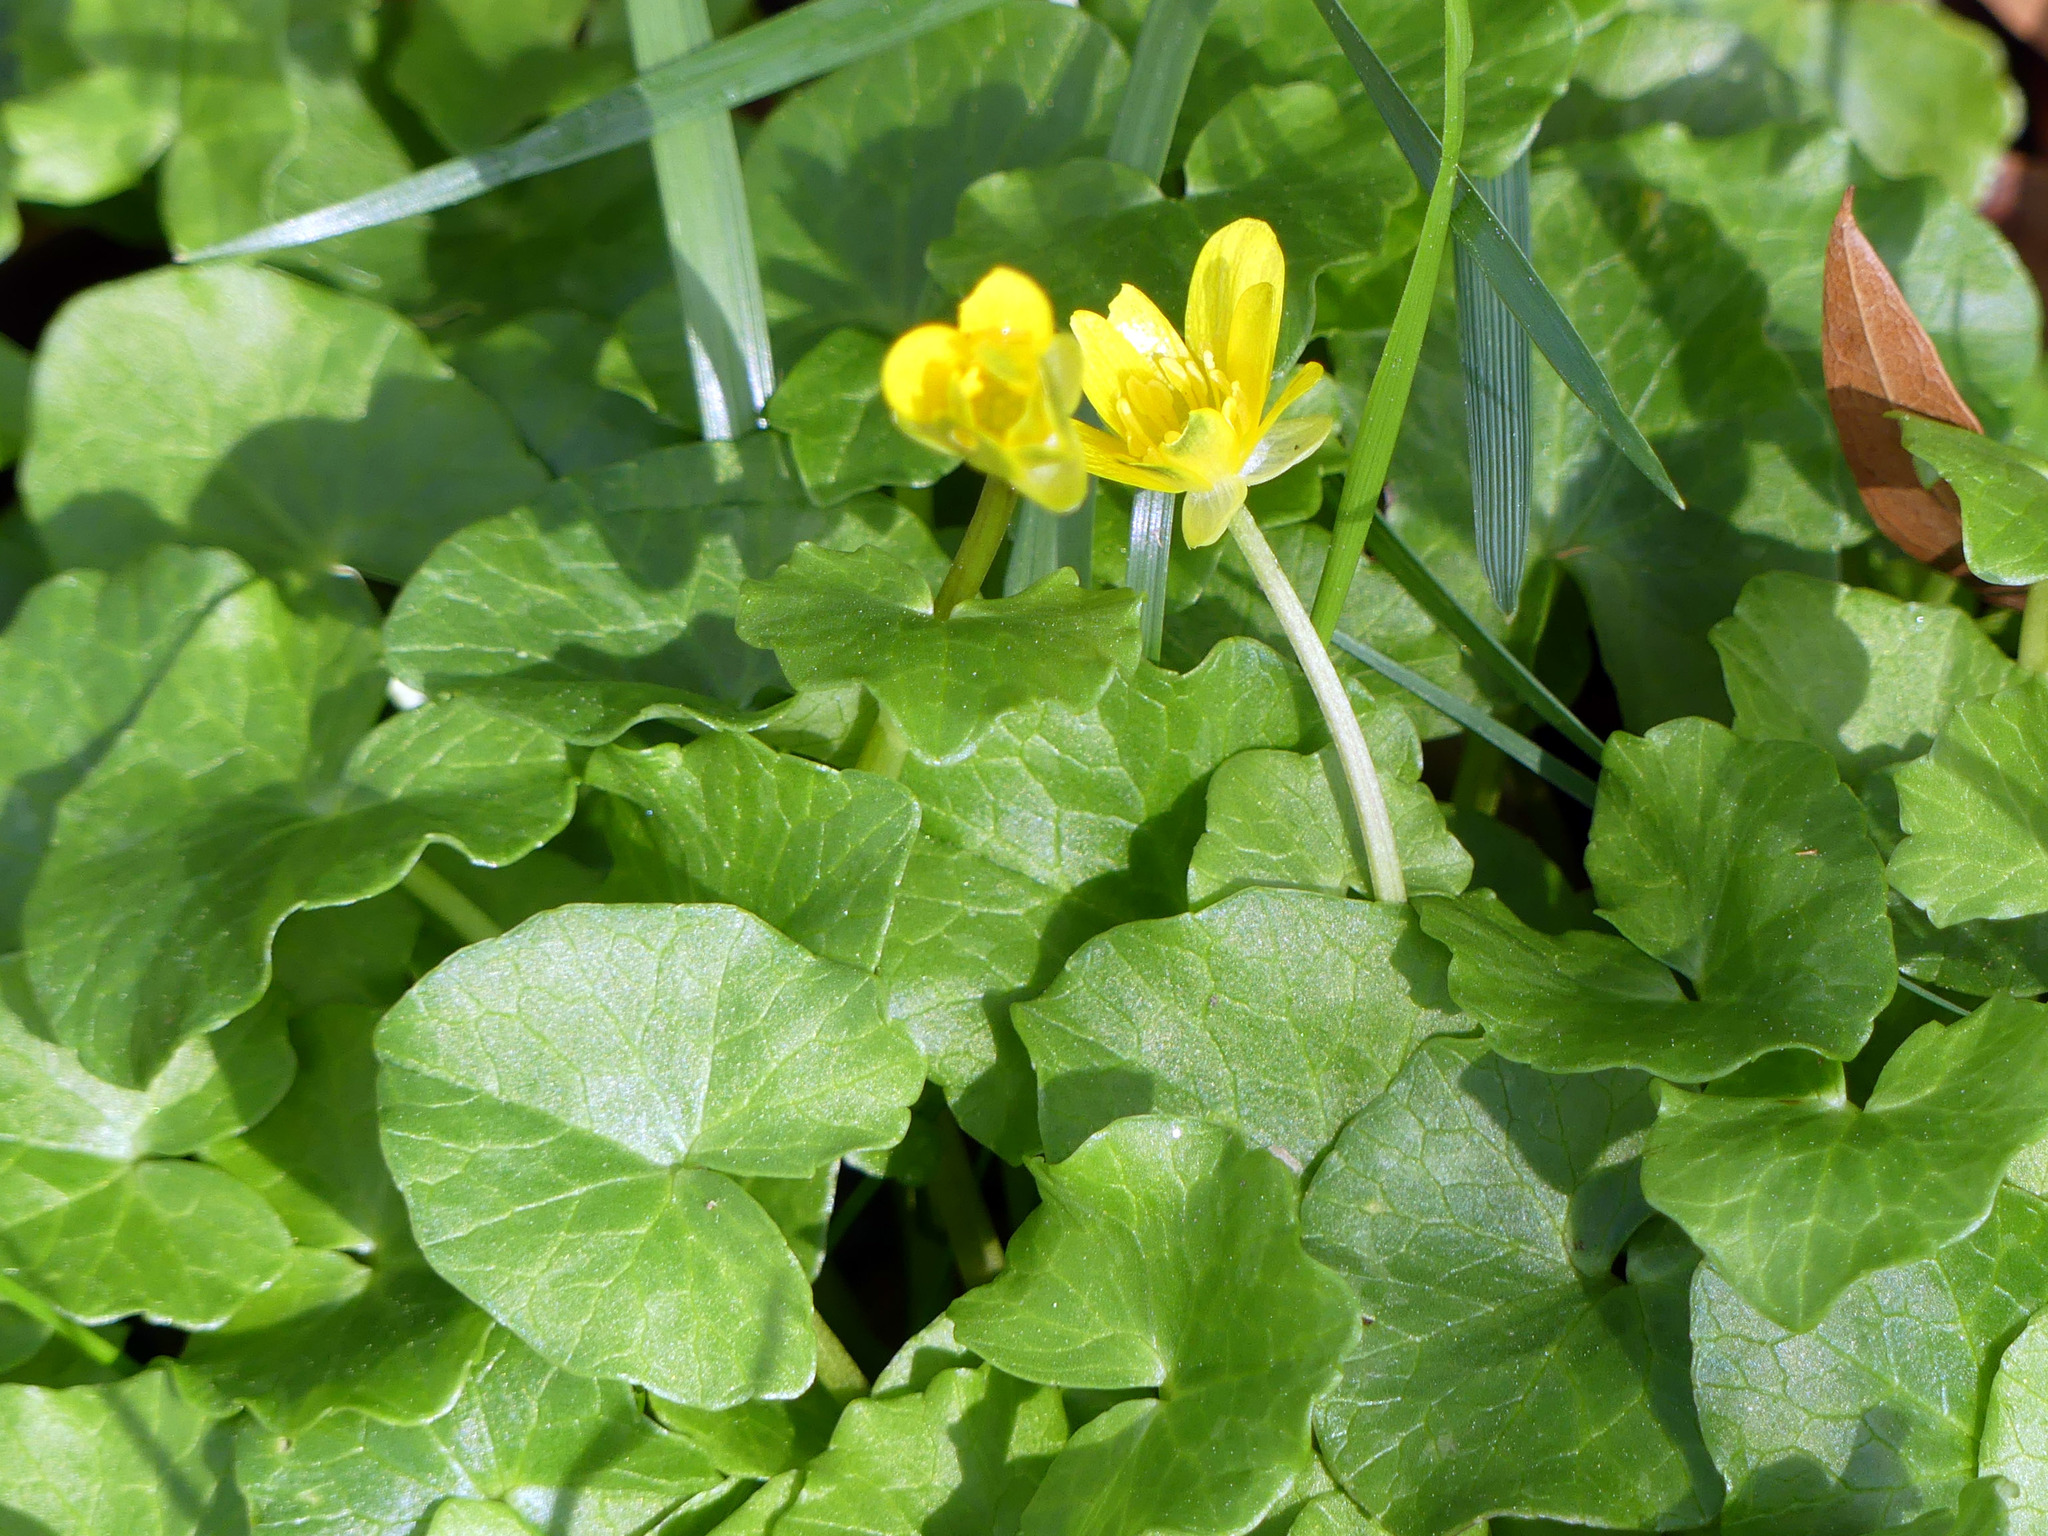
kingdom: Plantae
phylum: Tracheophyta
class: Magnoliopsida
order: Ranunculales
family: Ranunculaceae
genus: Ficaria
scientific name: Ficaria verna
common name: Lesser celandine
